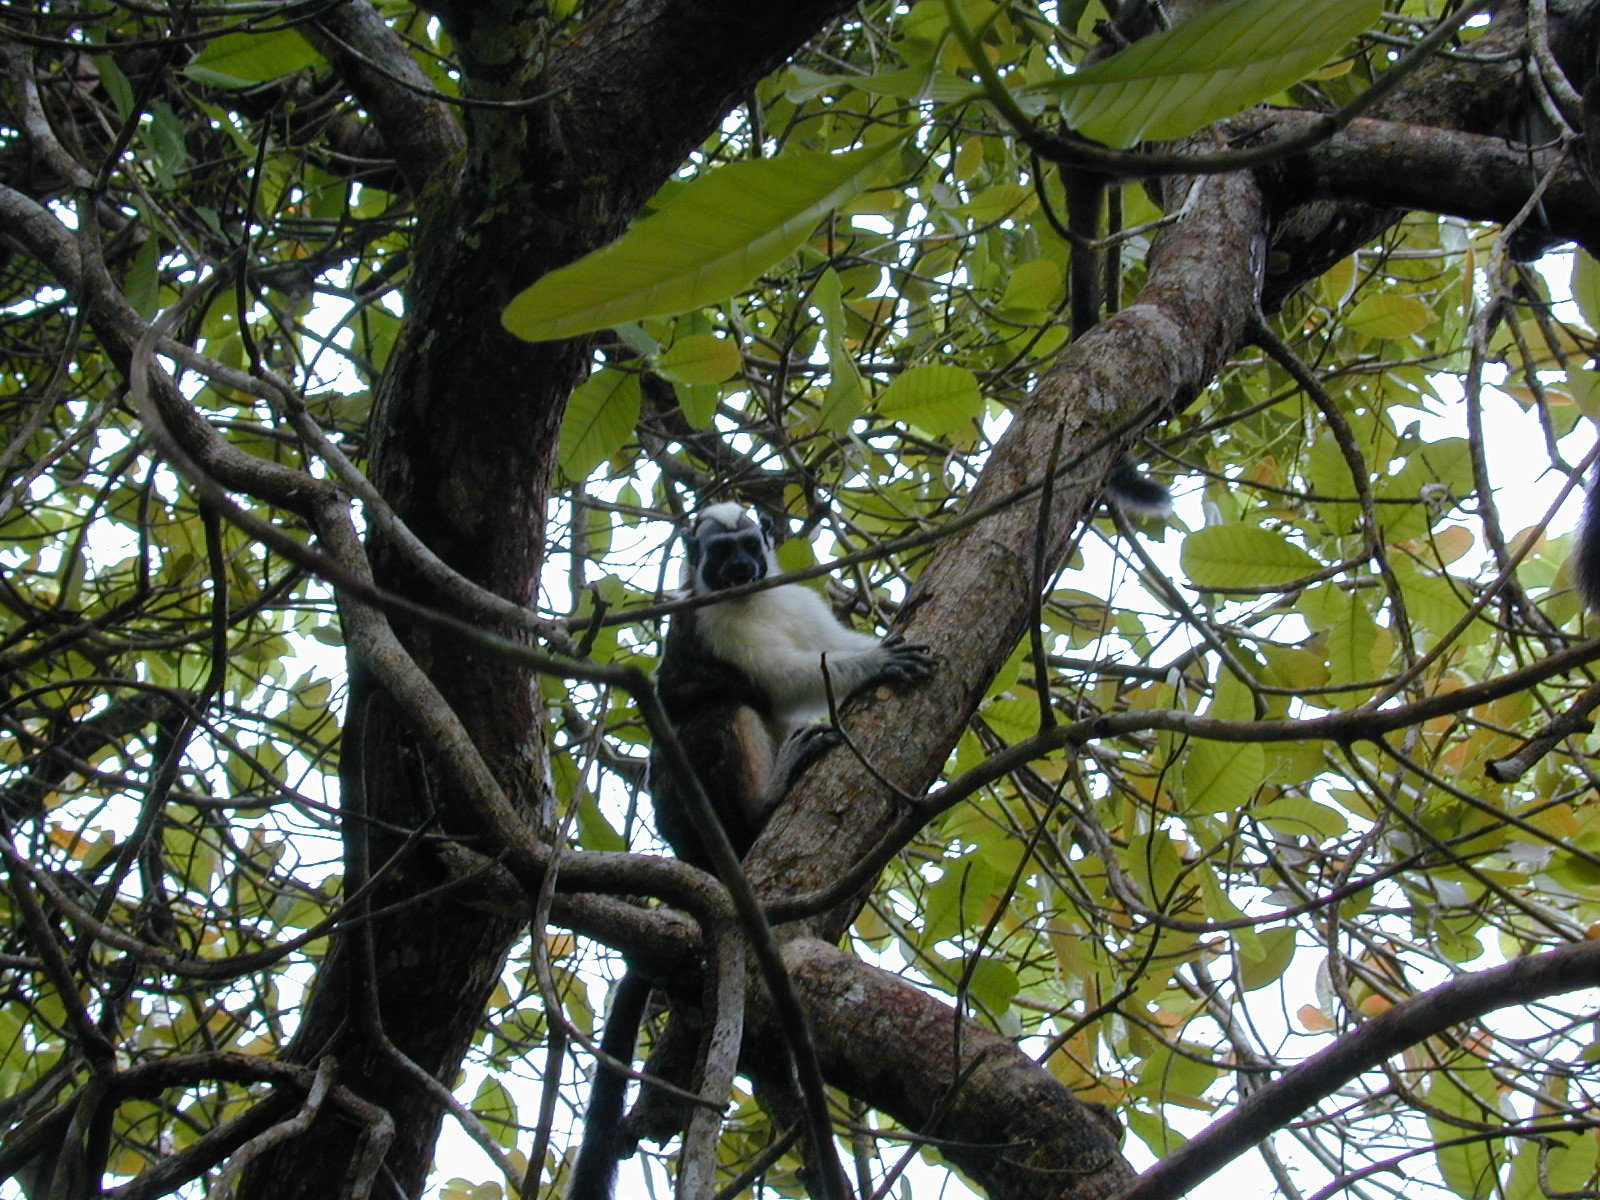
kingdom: Animalia
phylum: Chordata
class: Mammalia
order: Primates
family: Callitrichidae
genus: Saguinus
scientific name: Saguinus geoffroyi
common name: Geoffroy s tamarin
